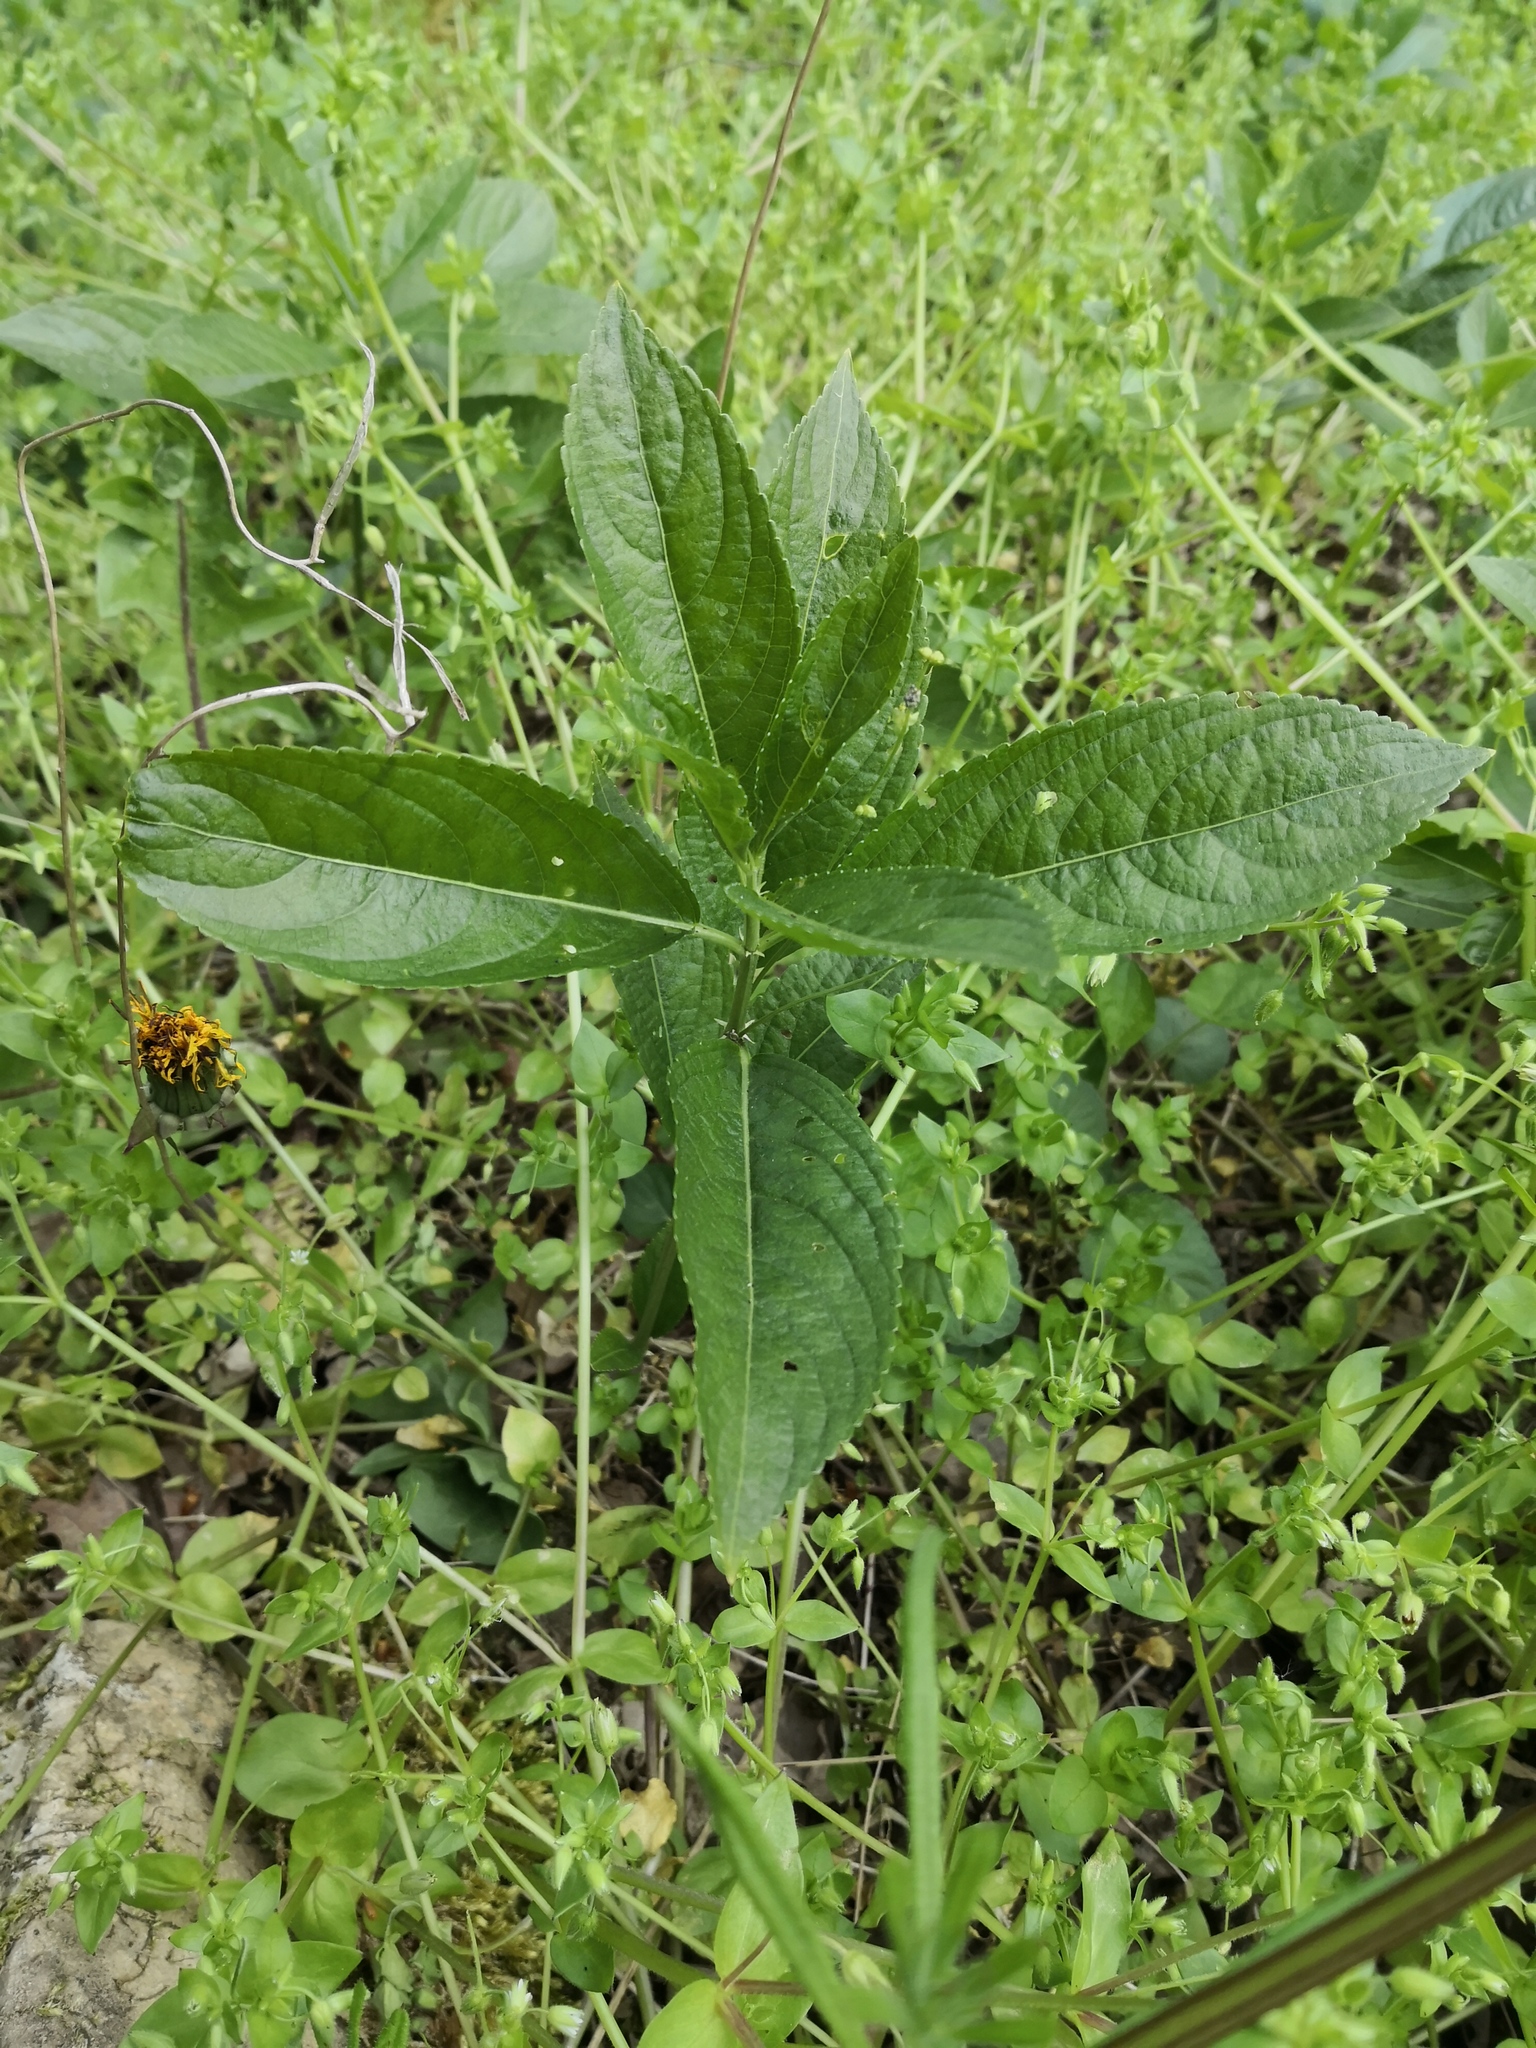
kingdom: Plantae
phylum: Tracheophyta
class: Magnoliopsida
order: Malpighiales
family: Euphorbiaceae
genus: Mercurialis
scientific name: Mercurialis perennis
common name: Dog mercury
